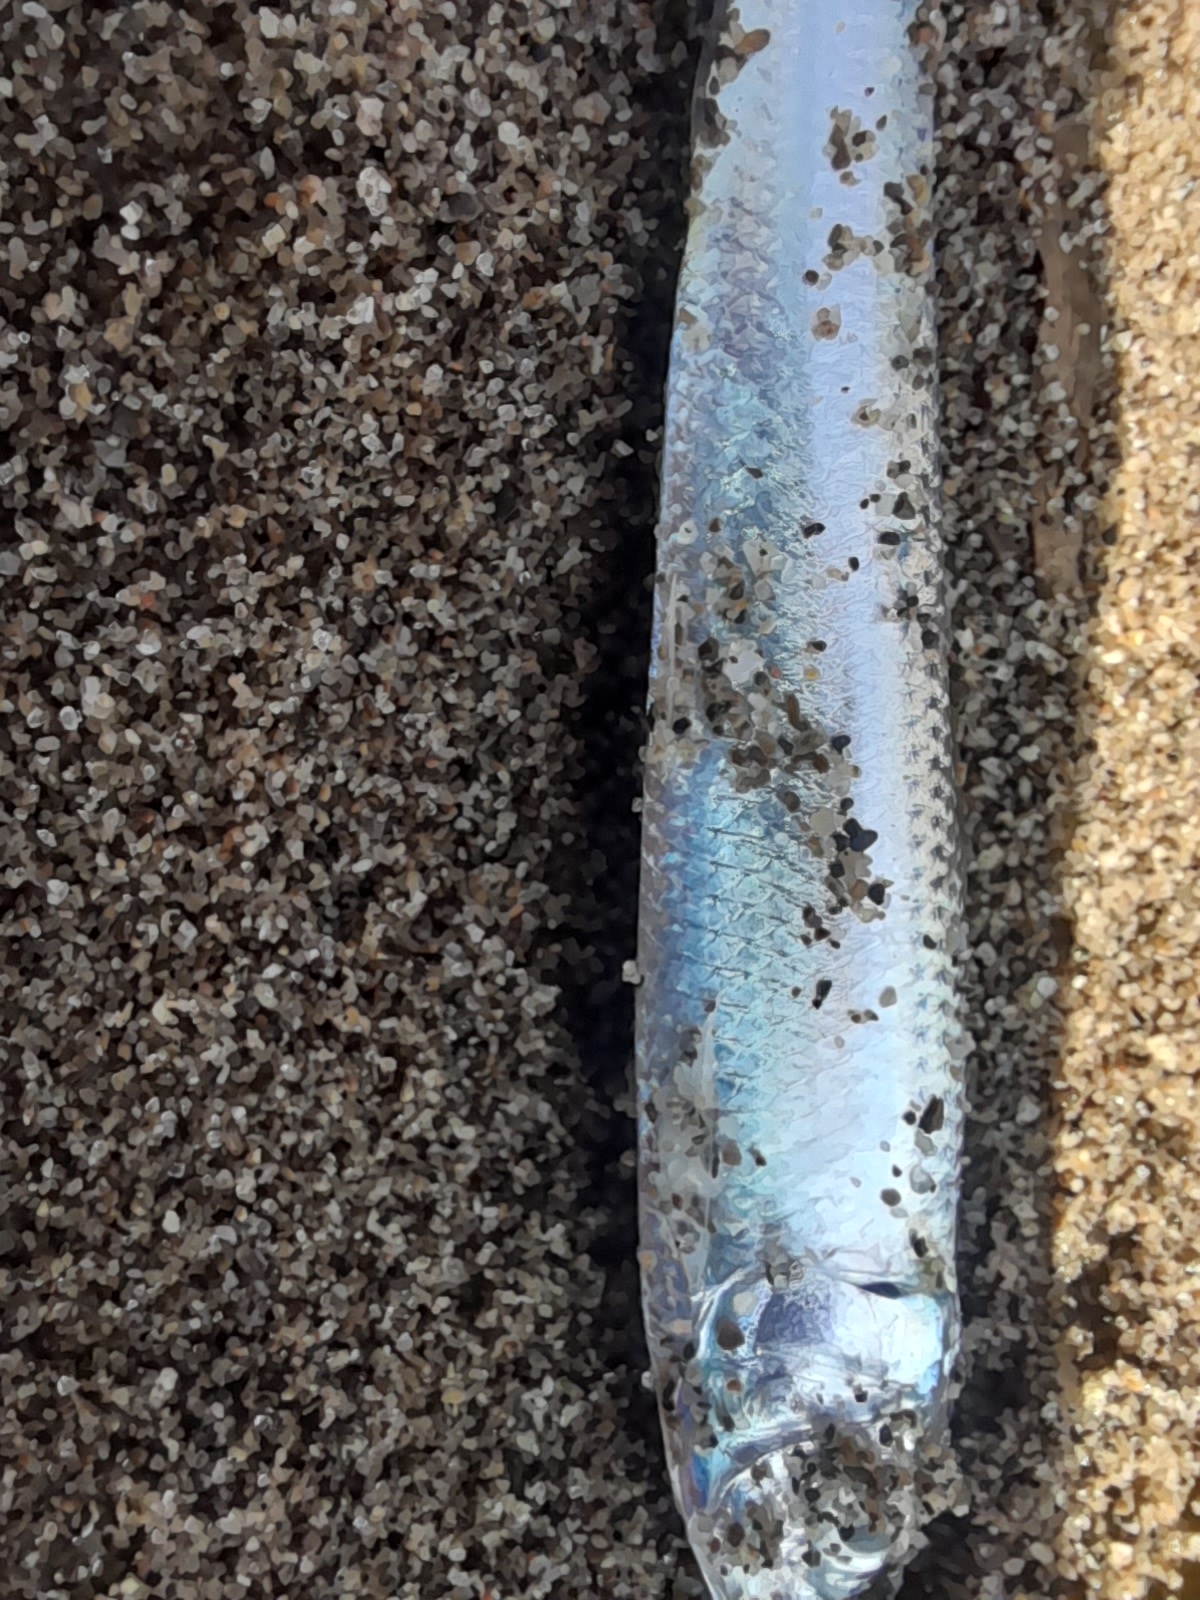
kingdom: Animalia
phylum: Chordata
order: Clupeiformes
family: Clupeidae
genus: Sardinella
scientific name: Sardinella aurita
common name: Round sardinella
